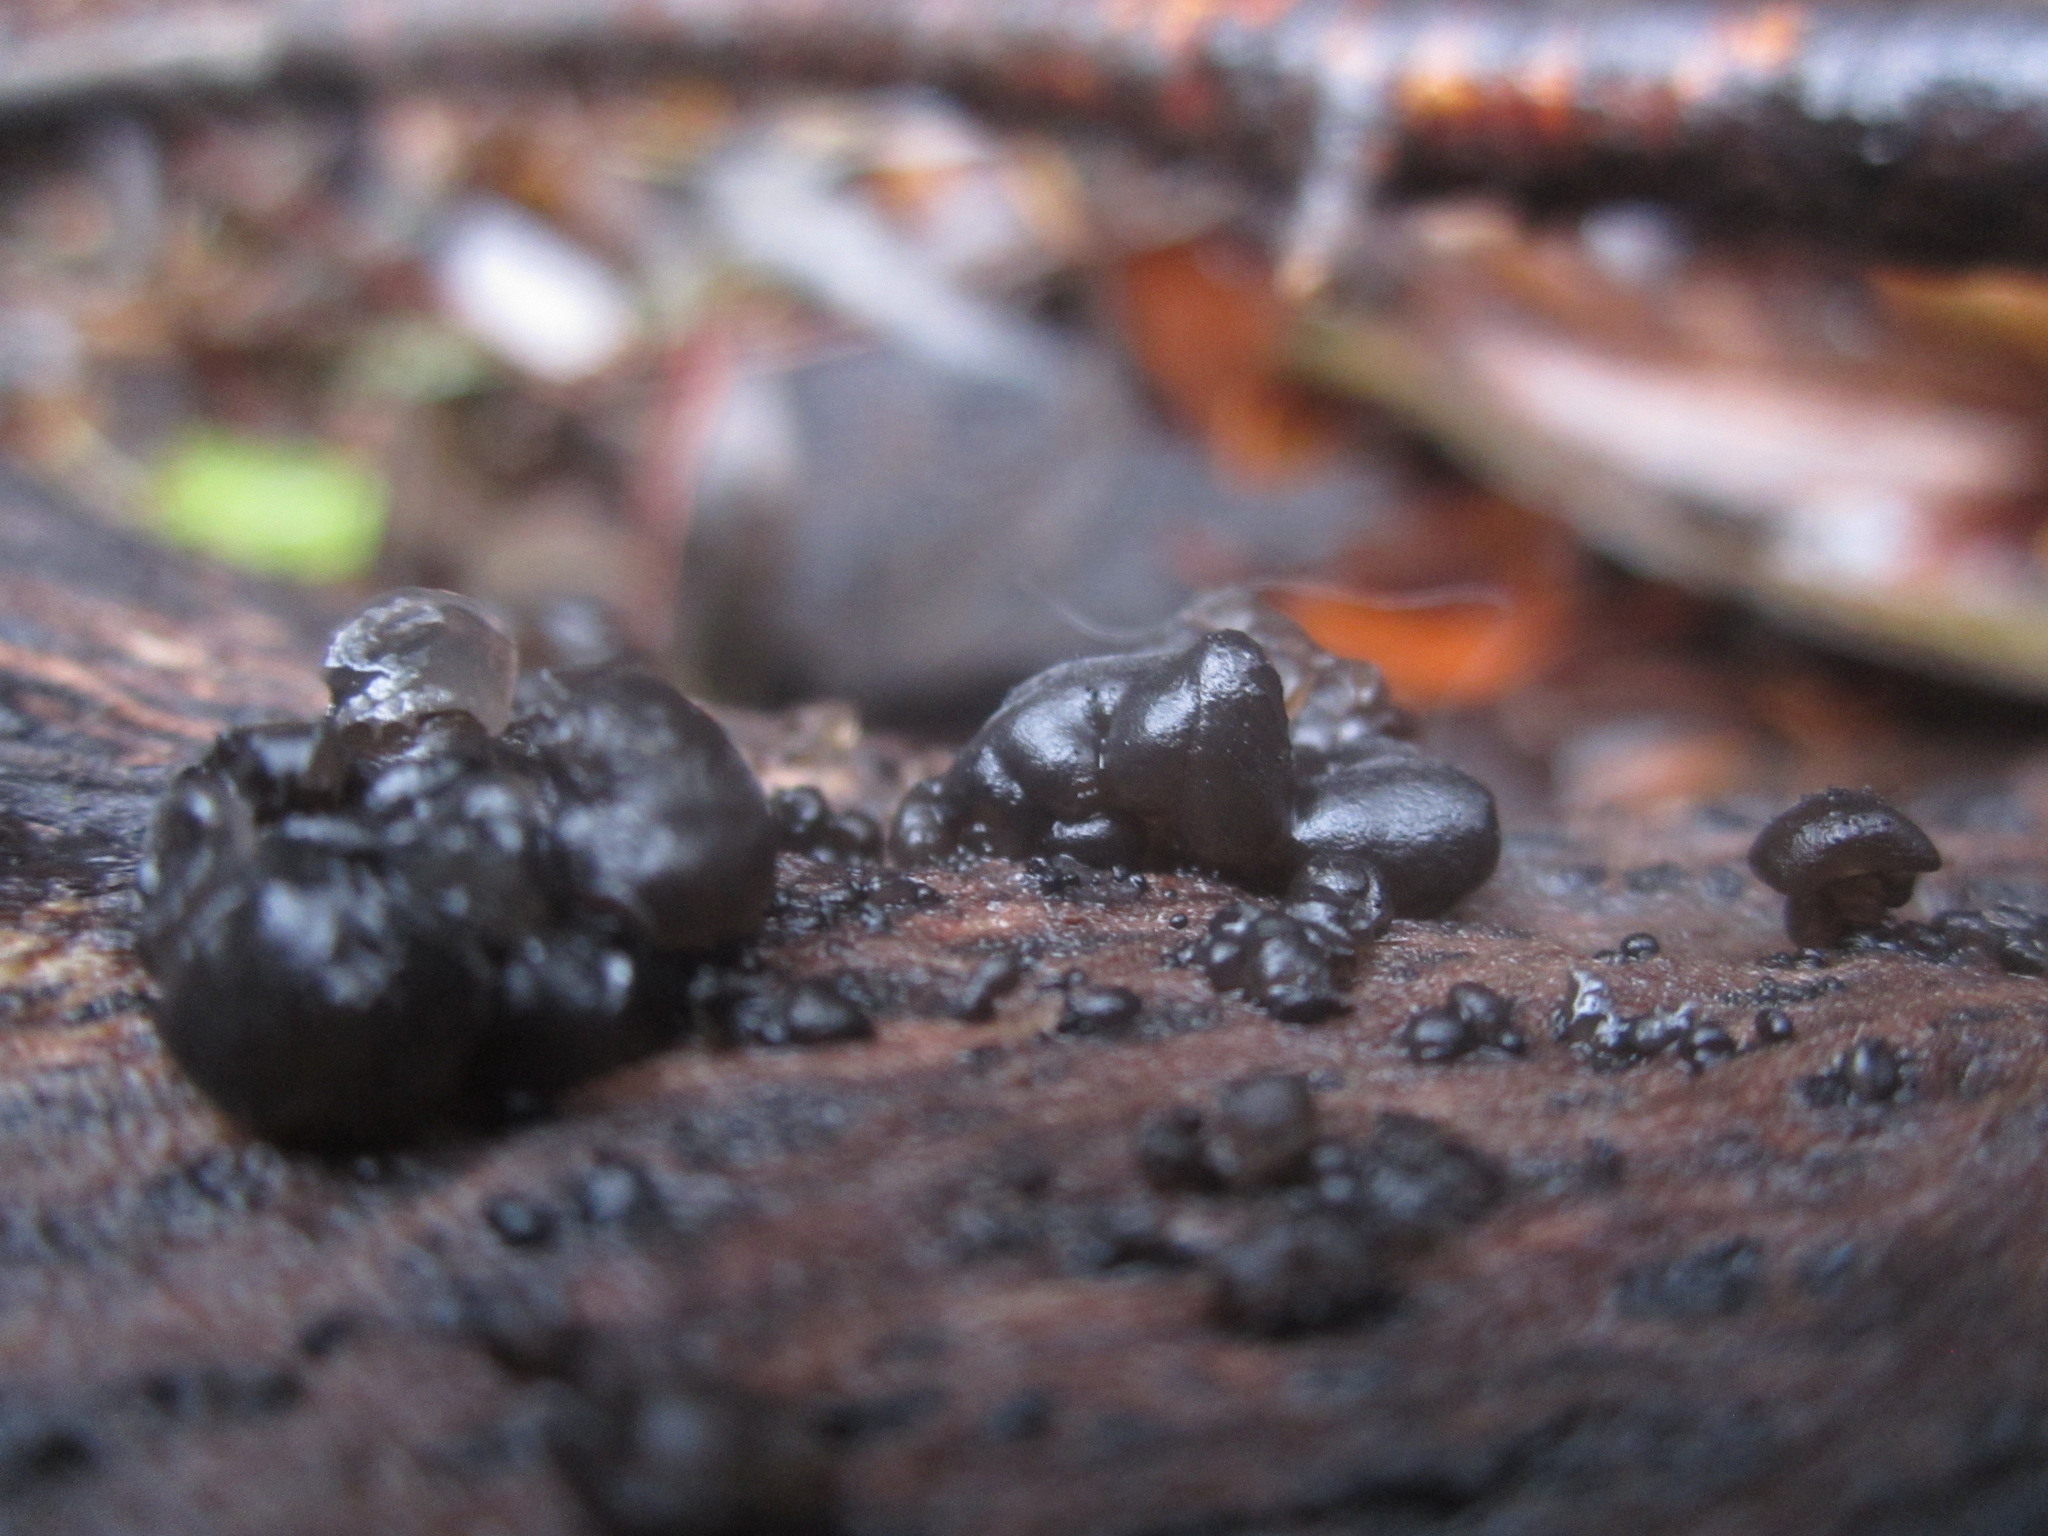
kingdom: Fungi
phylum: Basidiomycota
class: Agaricomycetes
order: Auriculariales
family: Auriculariaceae
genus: Exidia
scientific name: Exidia glandulosa
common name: Witches' butter
